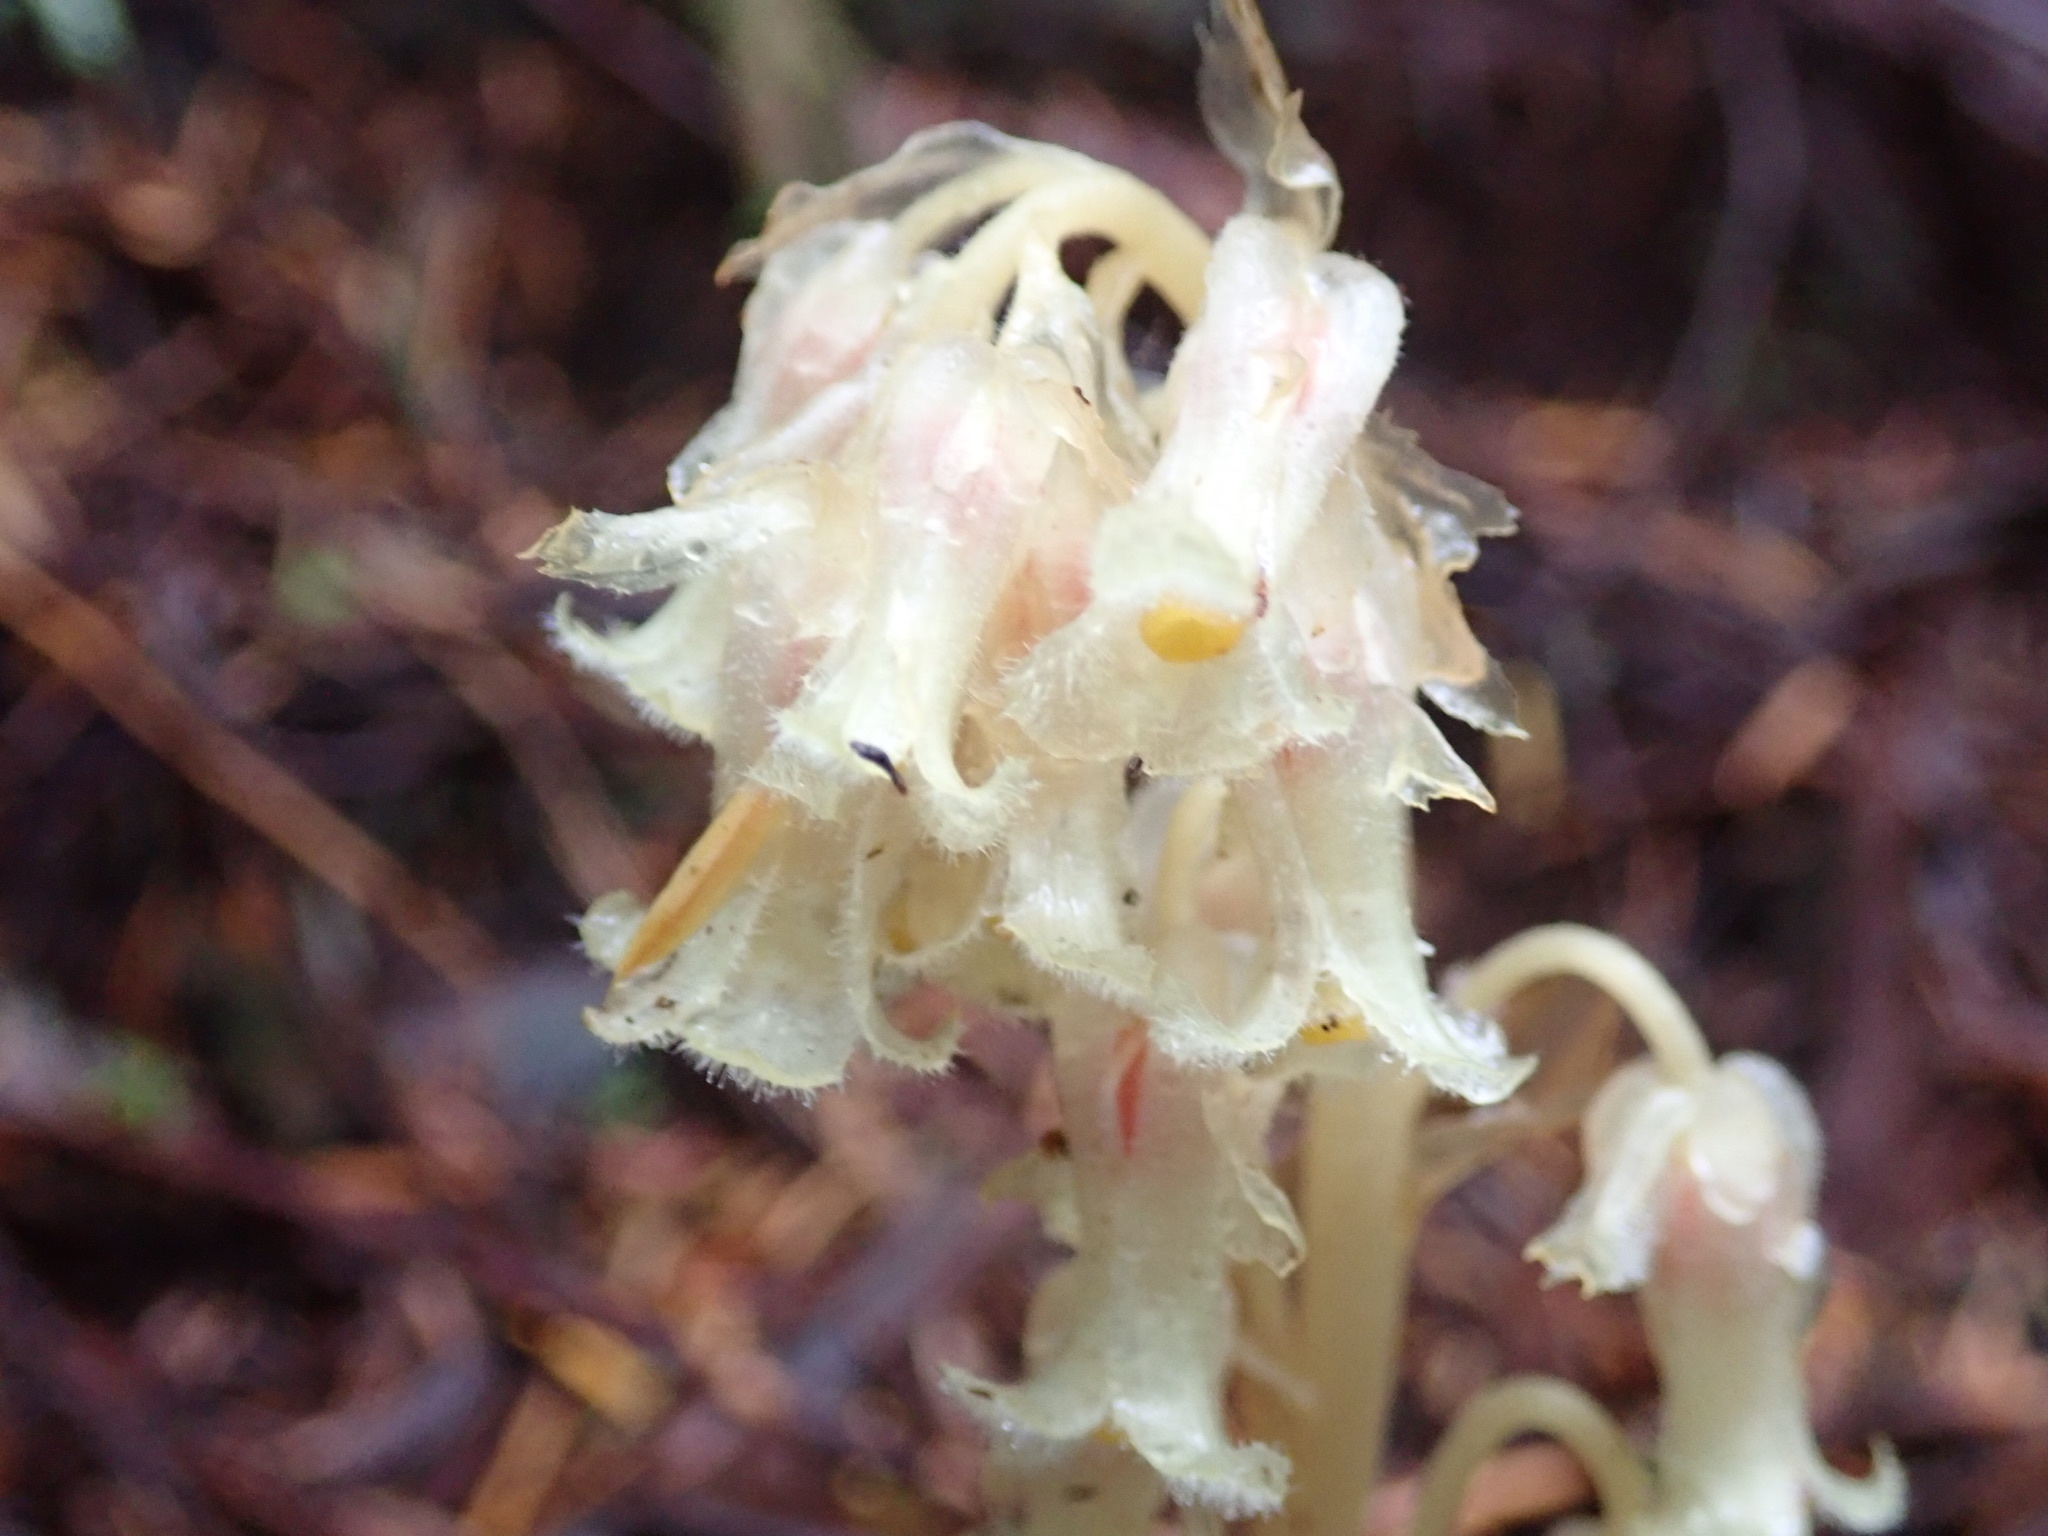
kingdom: Plantae
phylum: Tracheophyta
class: Magnoliopsida
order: Ericales
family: Ericaceae
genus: Hypopitys
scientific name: Hypopitys monotropa
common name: Yellow bird's-nest
